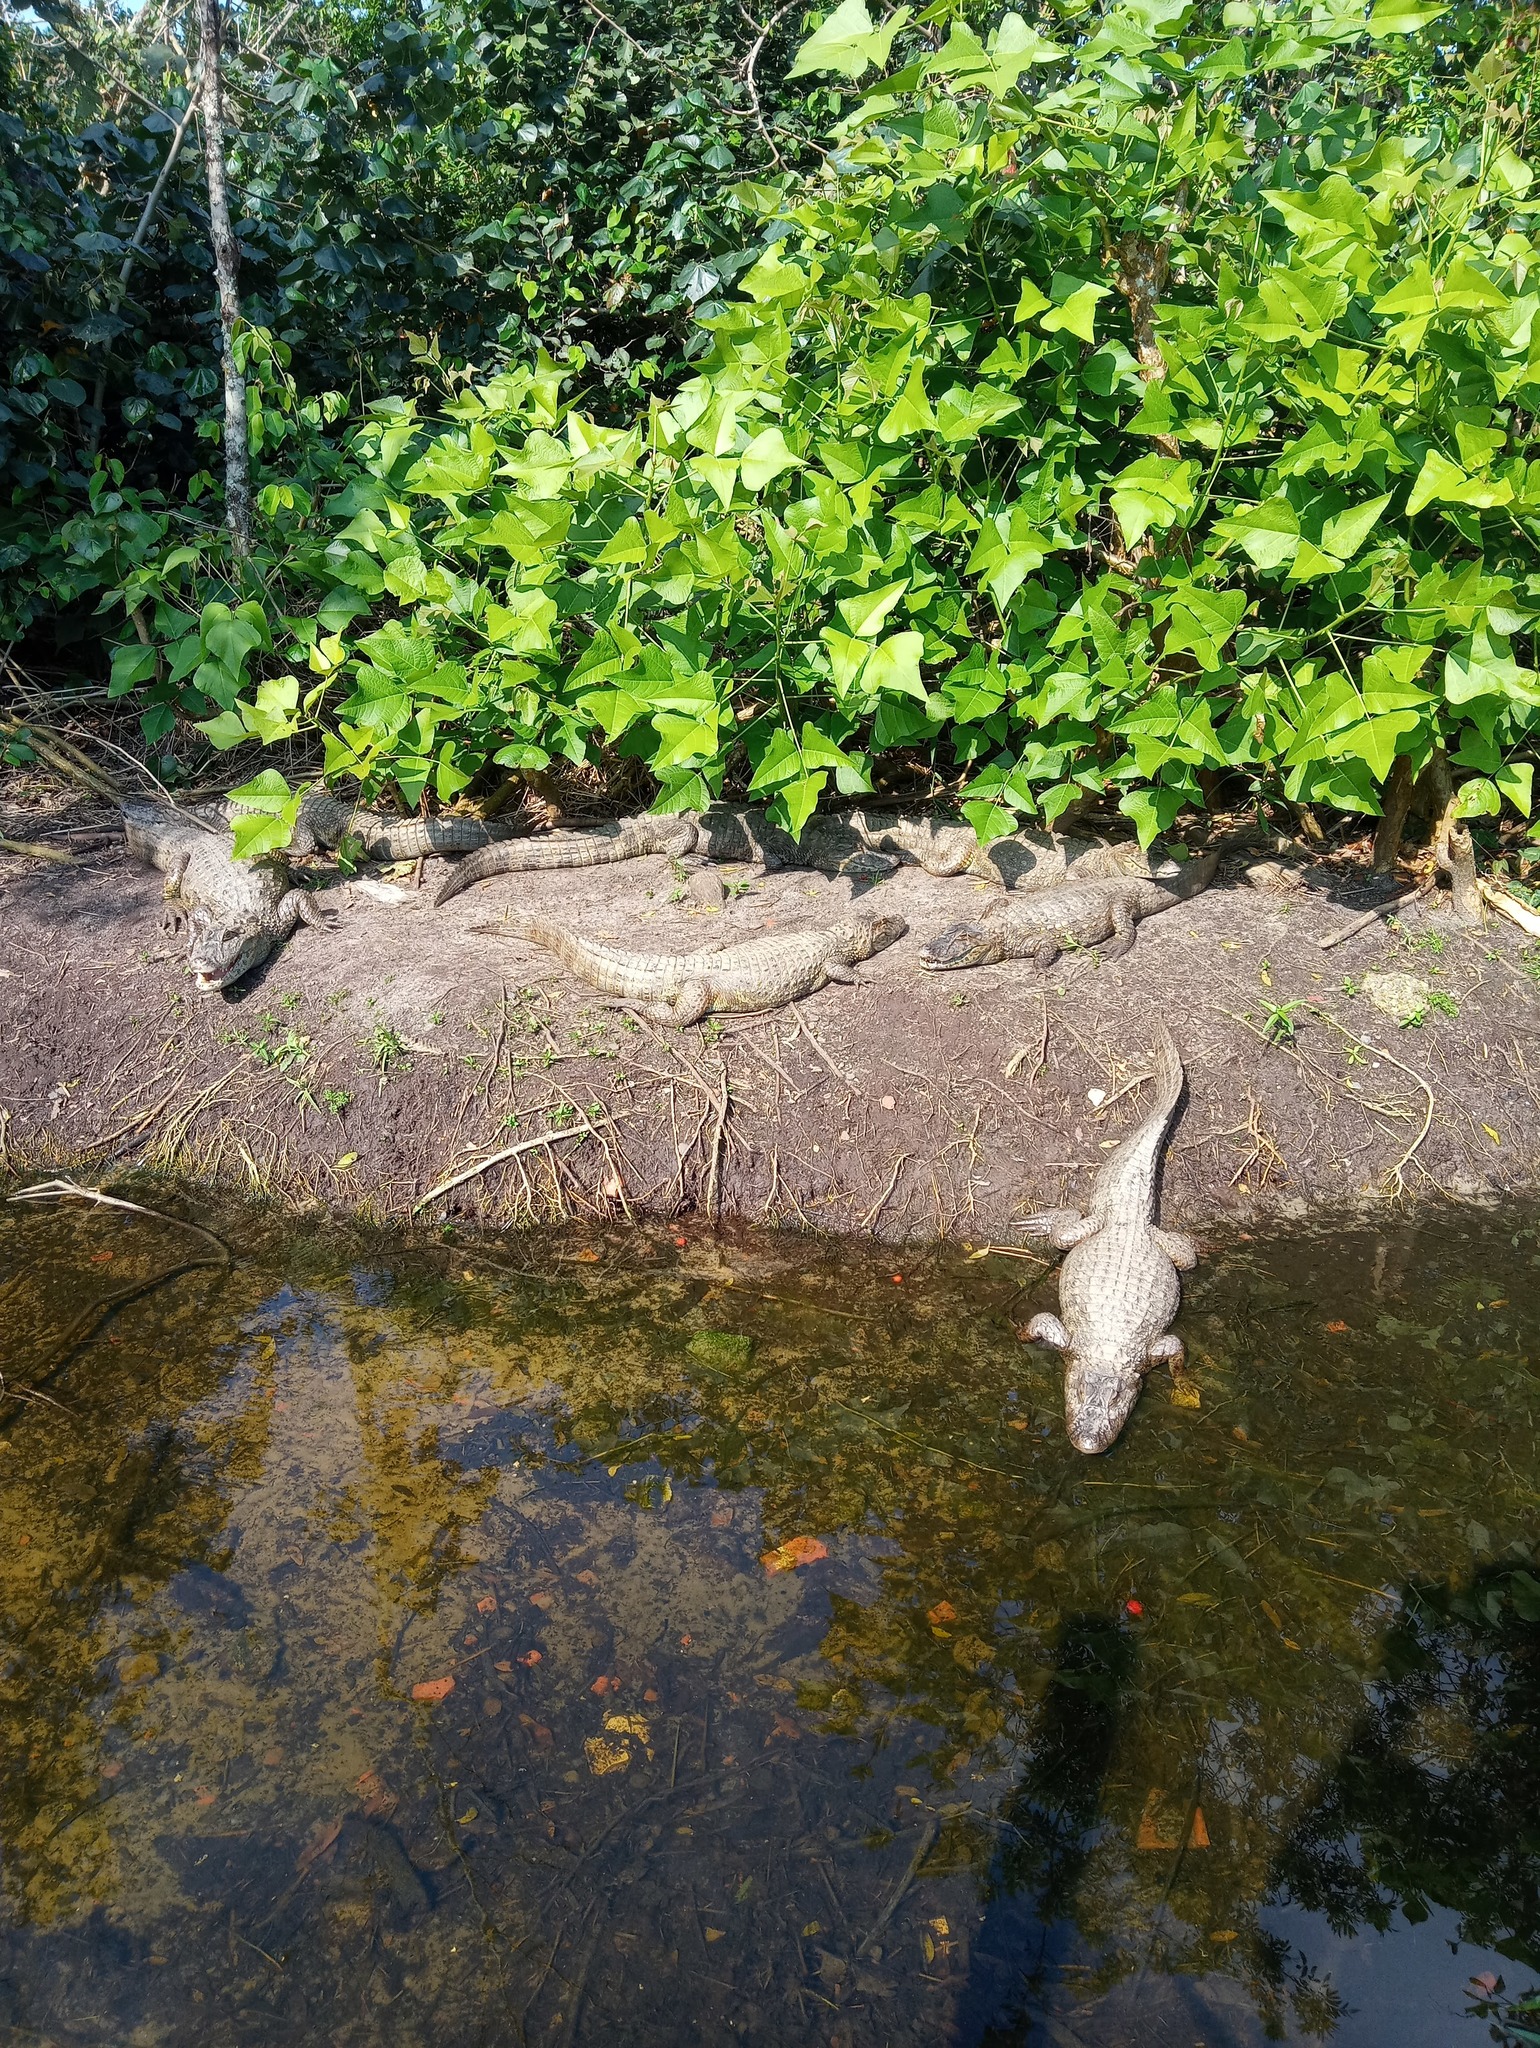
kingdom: Animalia
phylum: Chordata
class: Crocodylia
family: Alligatoridae
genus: Caiman
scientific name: Caiman latirostris
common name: Broad-snouted caiman
